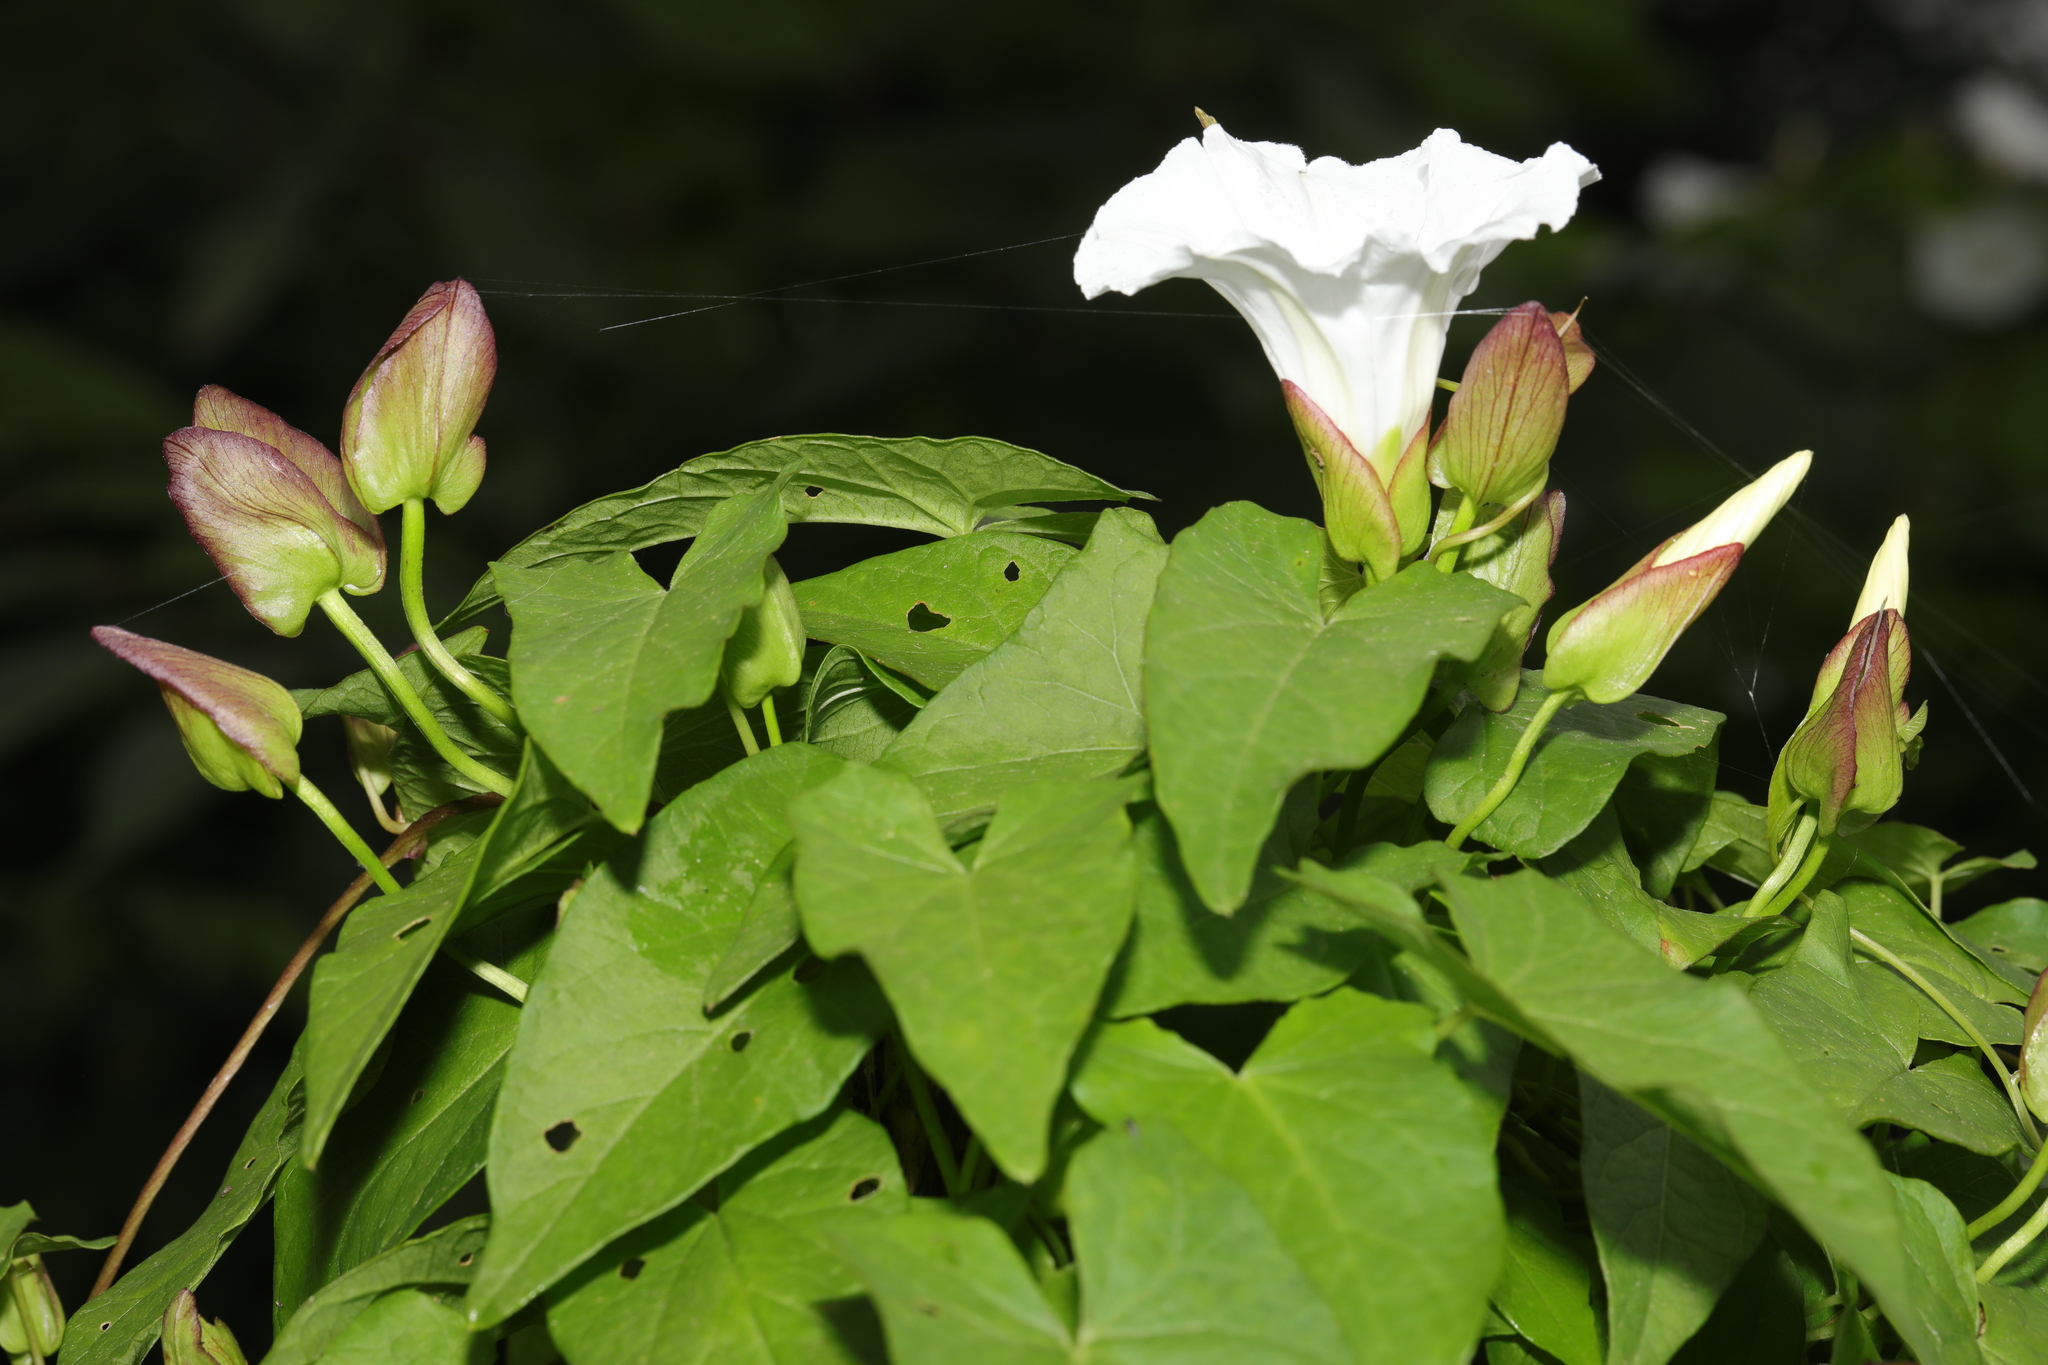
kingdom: Plantae
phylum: Tracheophyta
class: Magnoliopsida
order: Solanales
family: Convolvulaceae
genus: Calystegia
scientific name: Calystegia sepium
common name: Hedge bindweed
